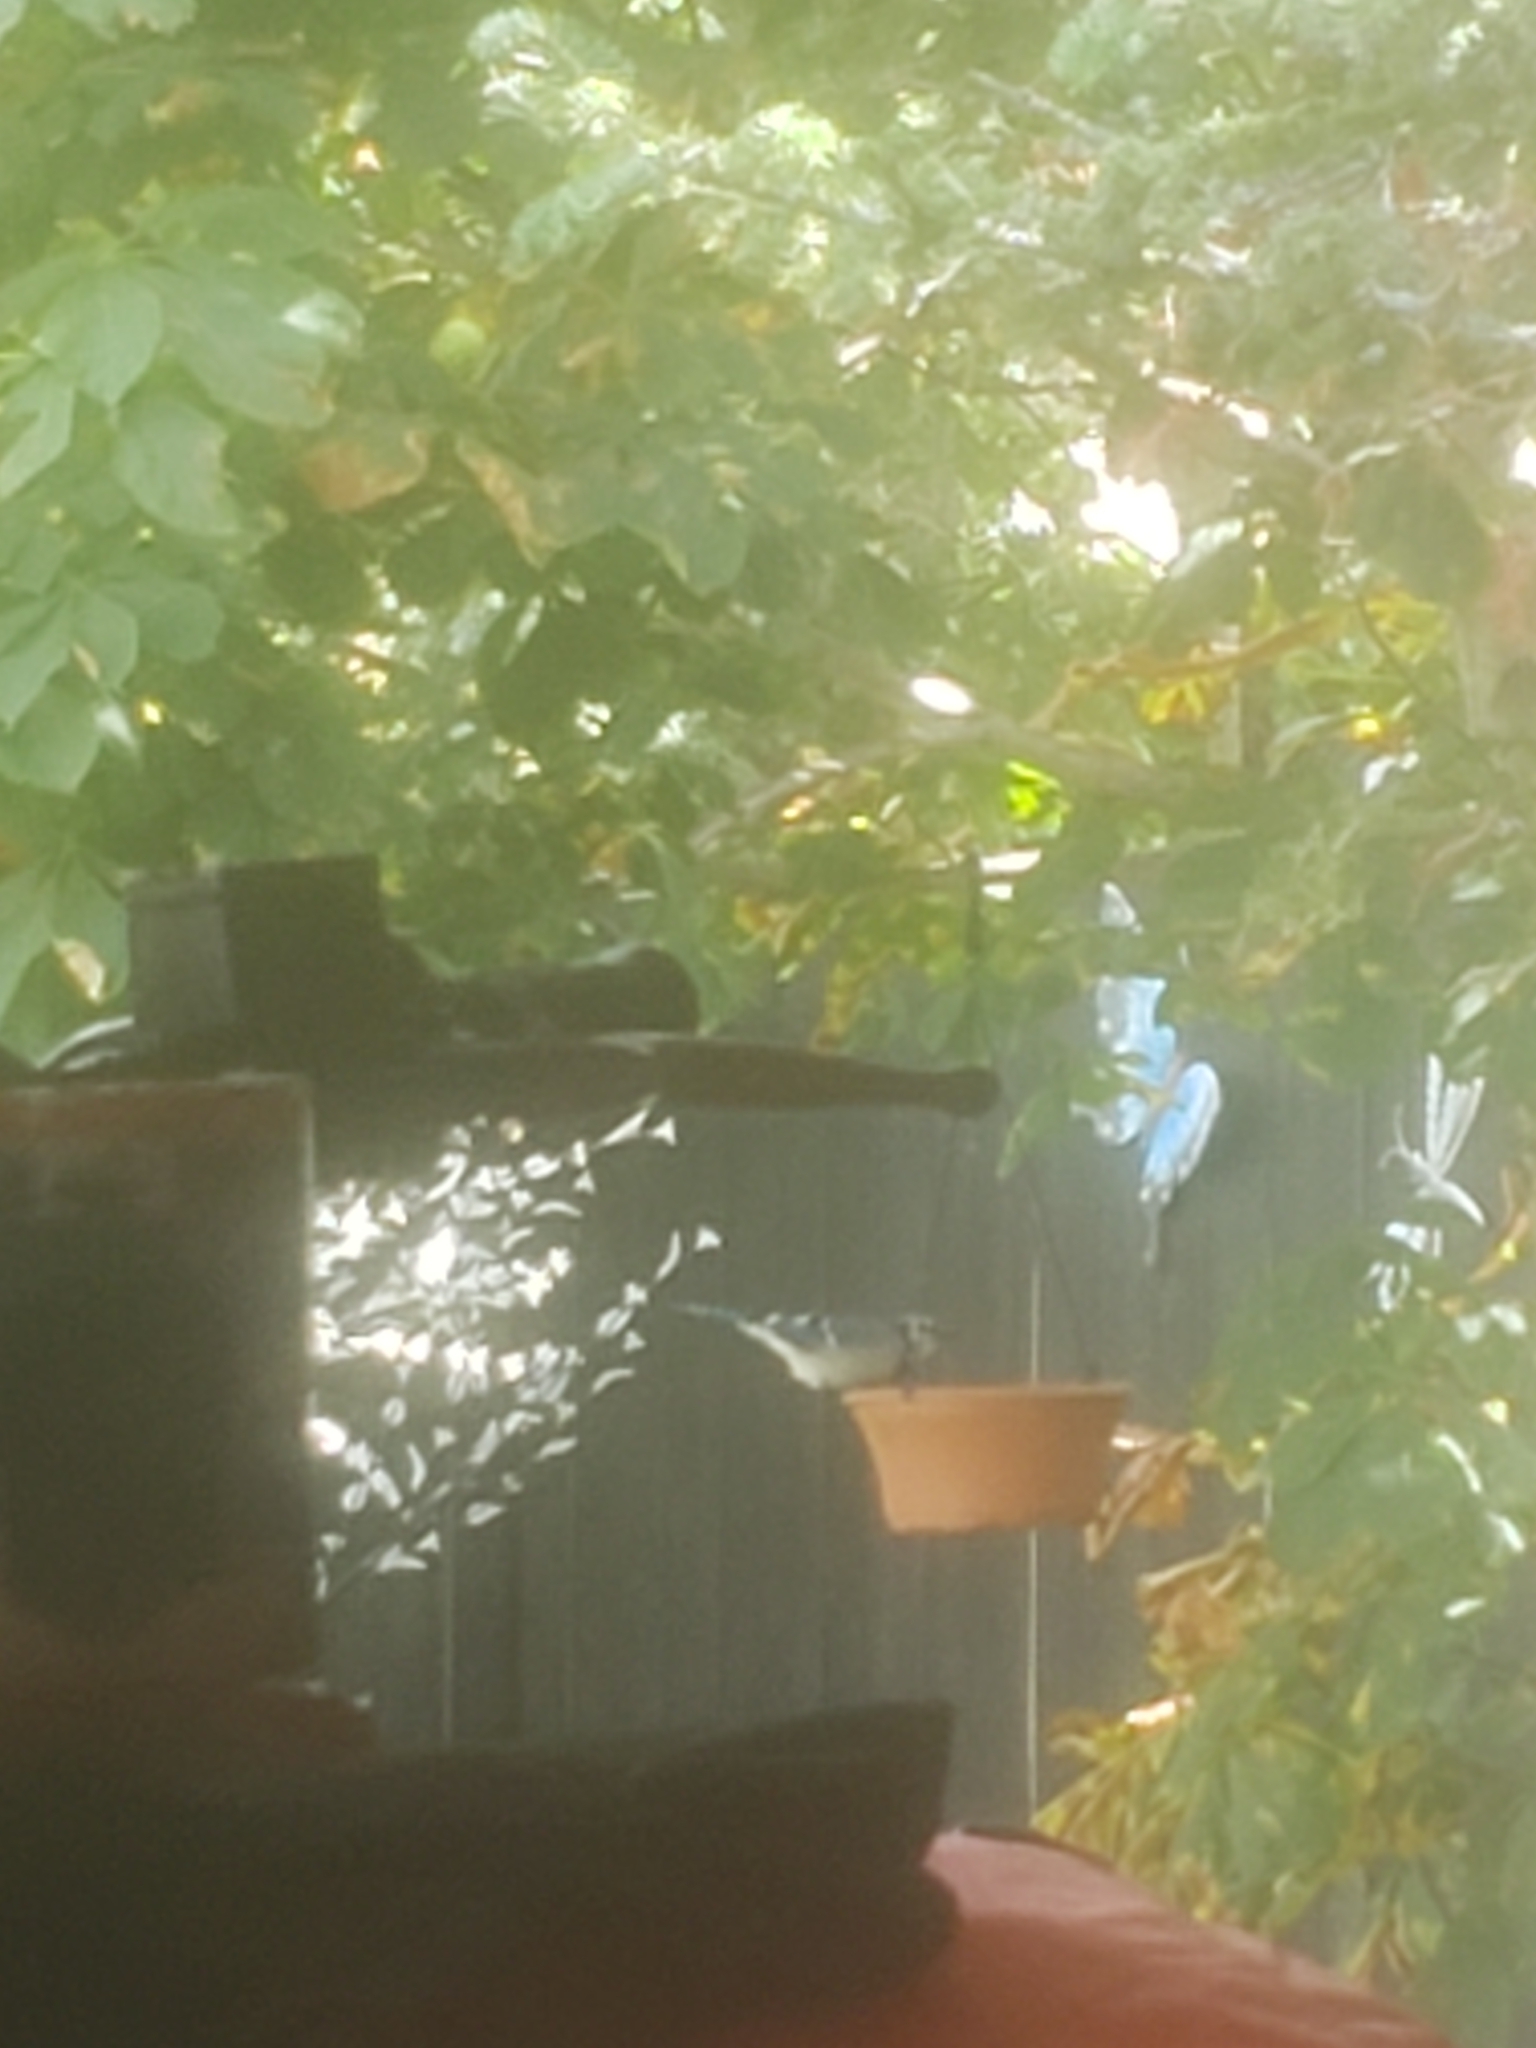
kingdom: Animalia
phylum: Chordata
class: Aves
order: Passeriformes
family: Corvidae
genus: Cyanocitta
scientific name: Cyanocitta cristata
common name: Blue jay
